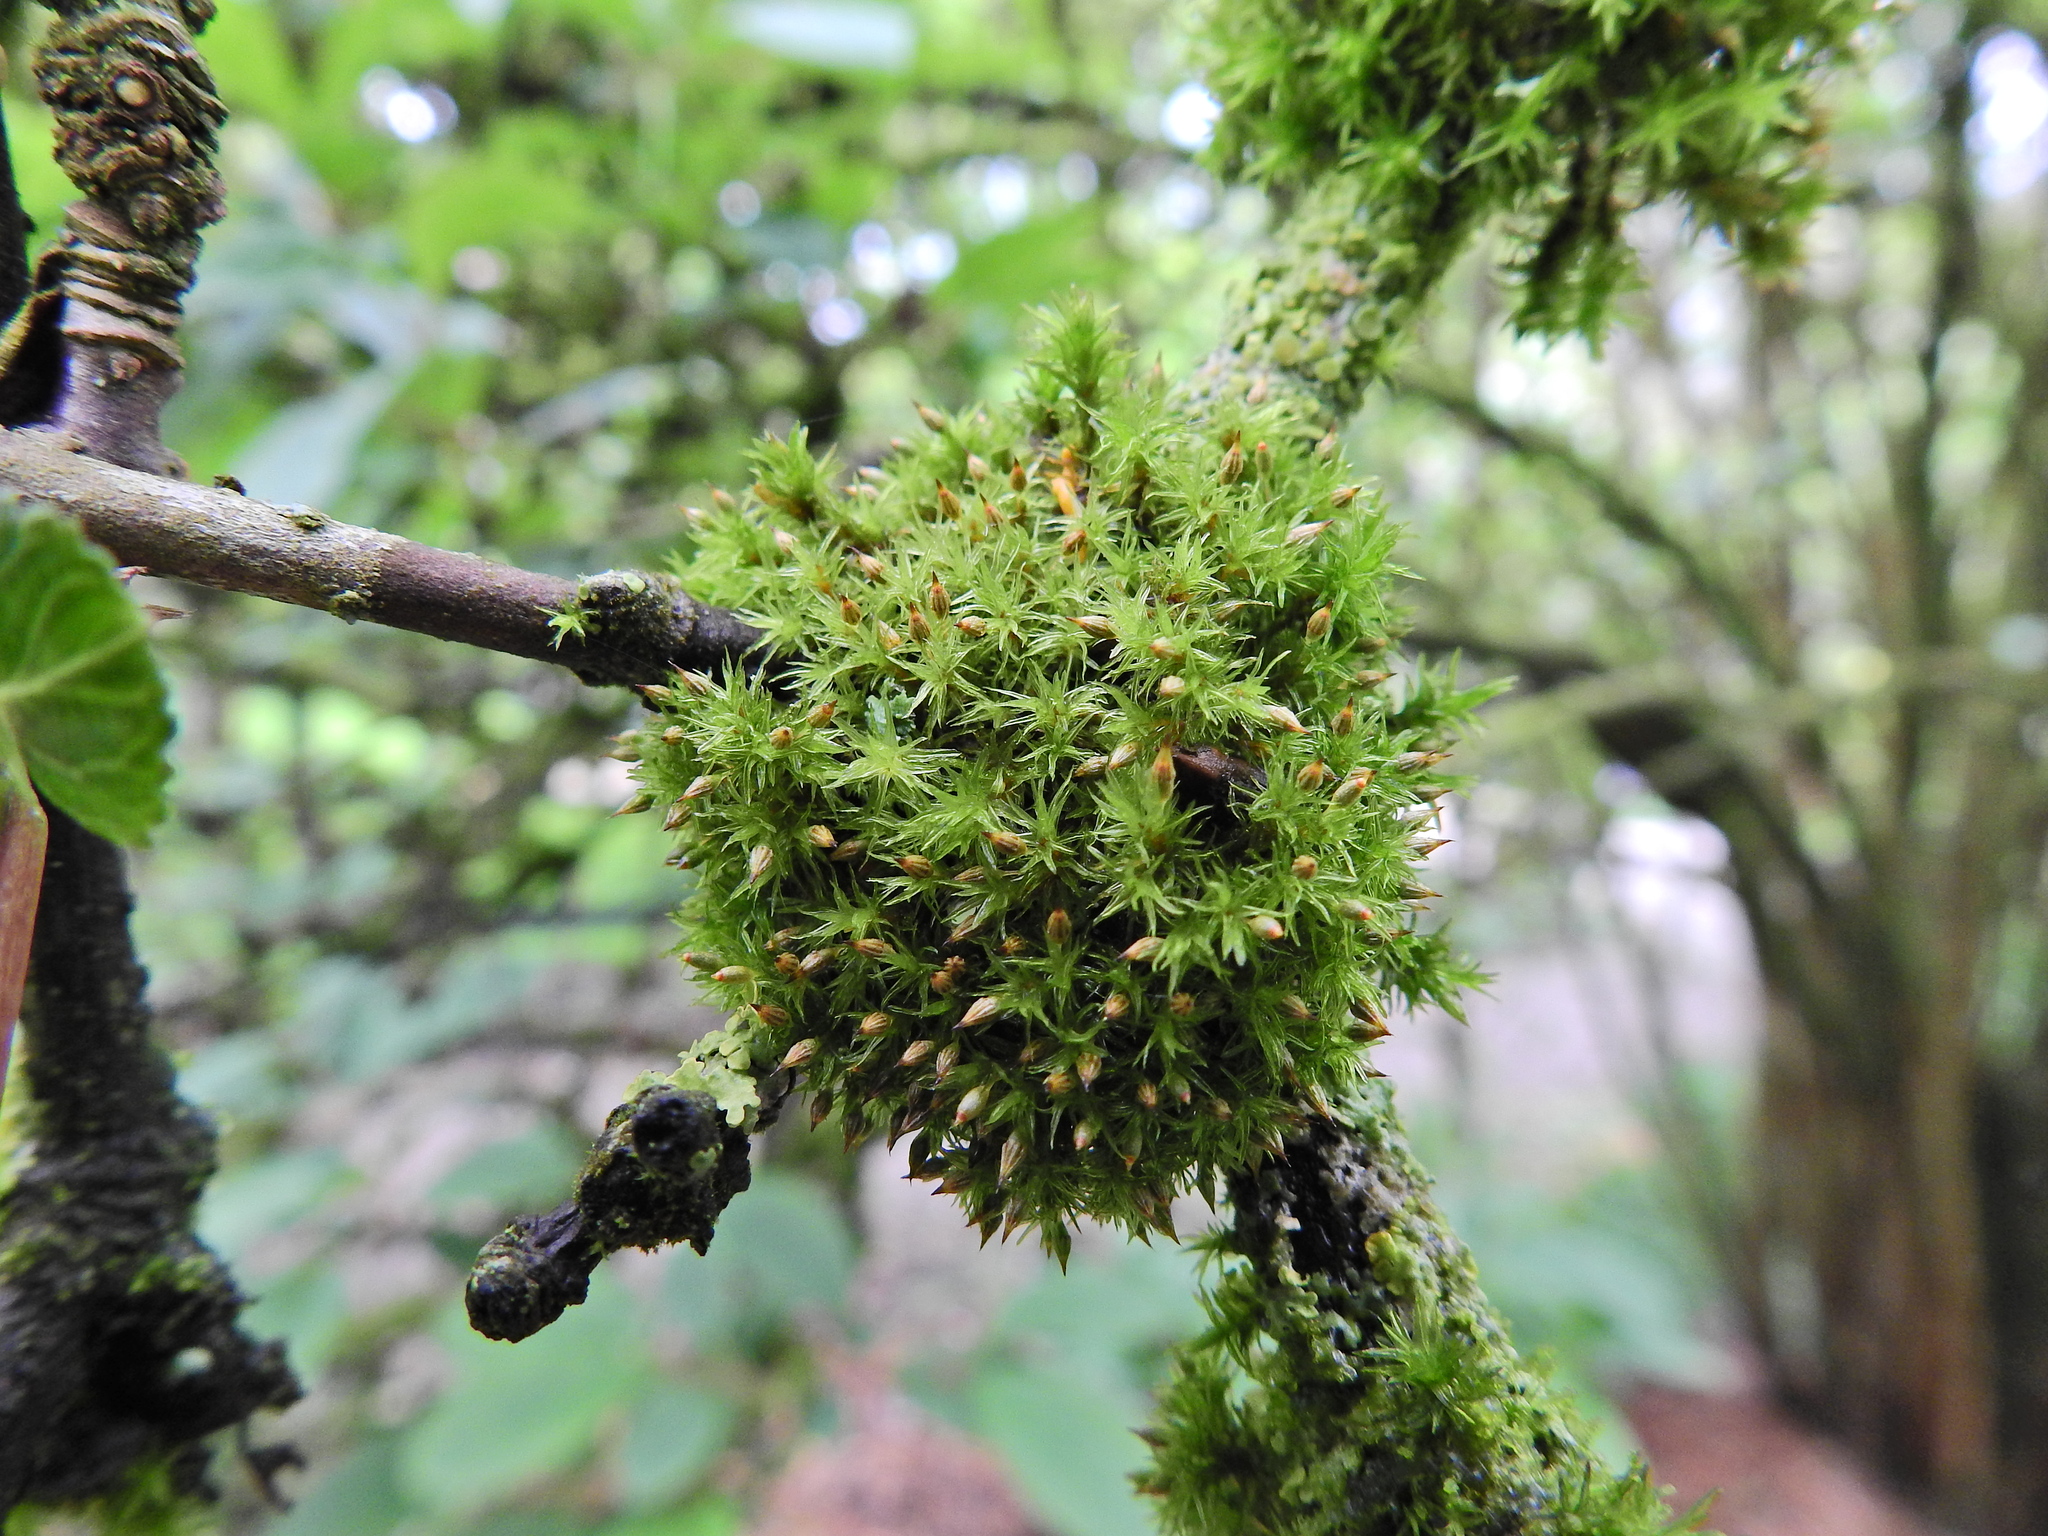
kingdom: Plantae
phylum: Bryophyta
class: Bryopsida
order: Orthotrichales
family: Orthotrichaceae
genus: Orthotrichum
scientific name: Orthotrichum pulchellum
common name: Elegant bristle-moss
